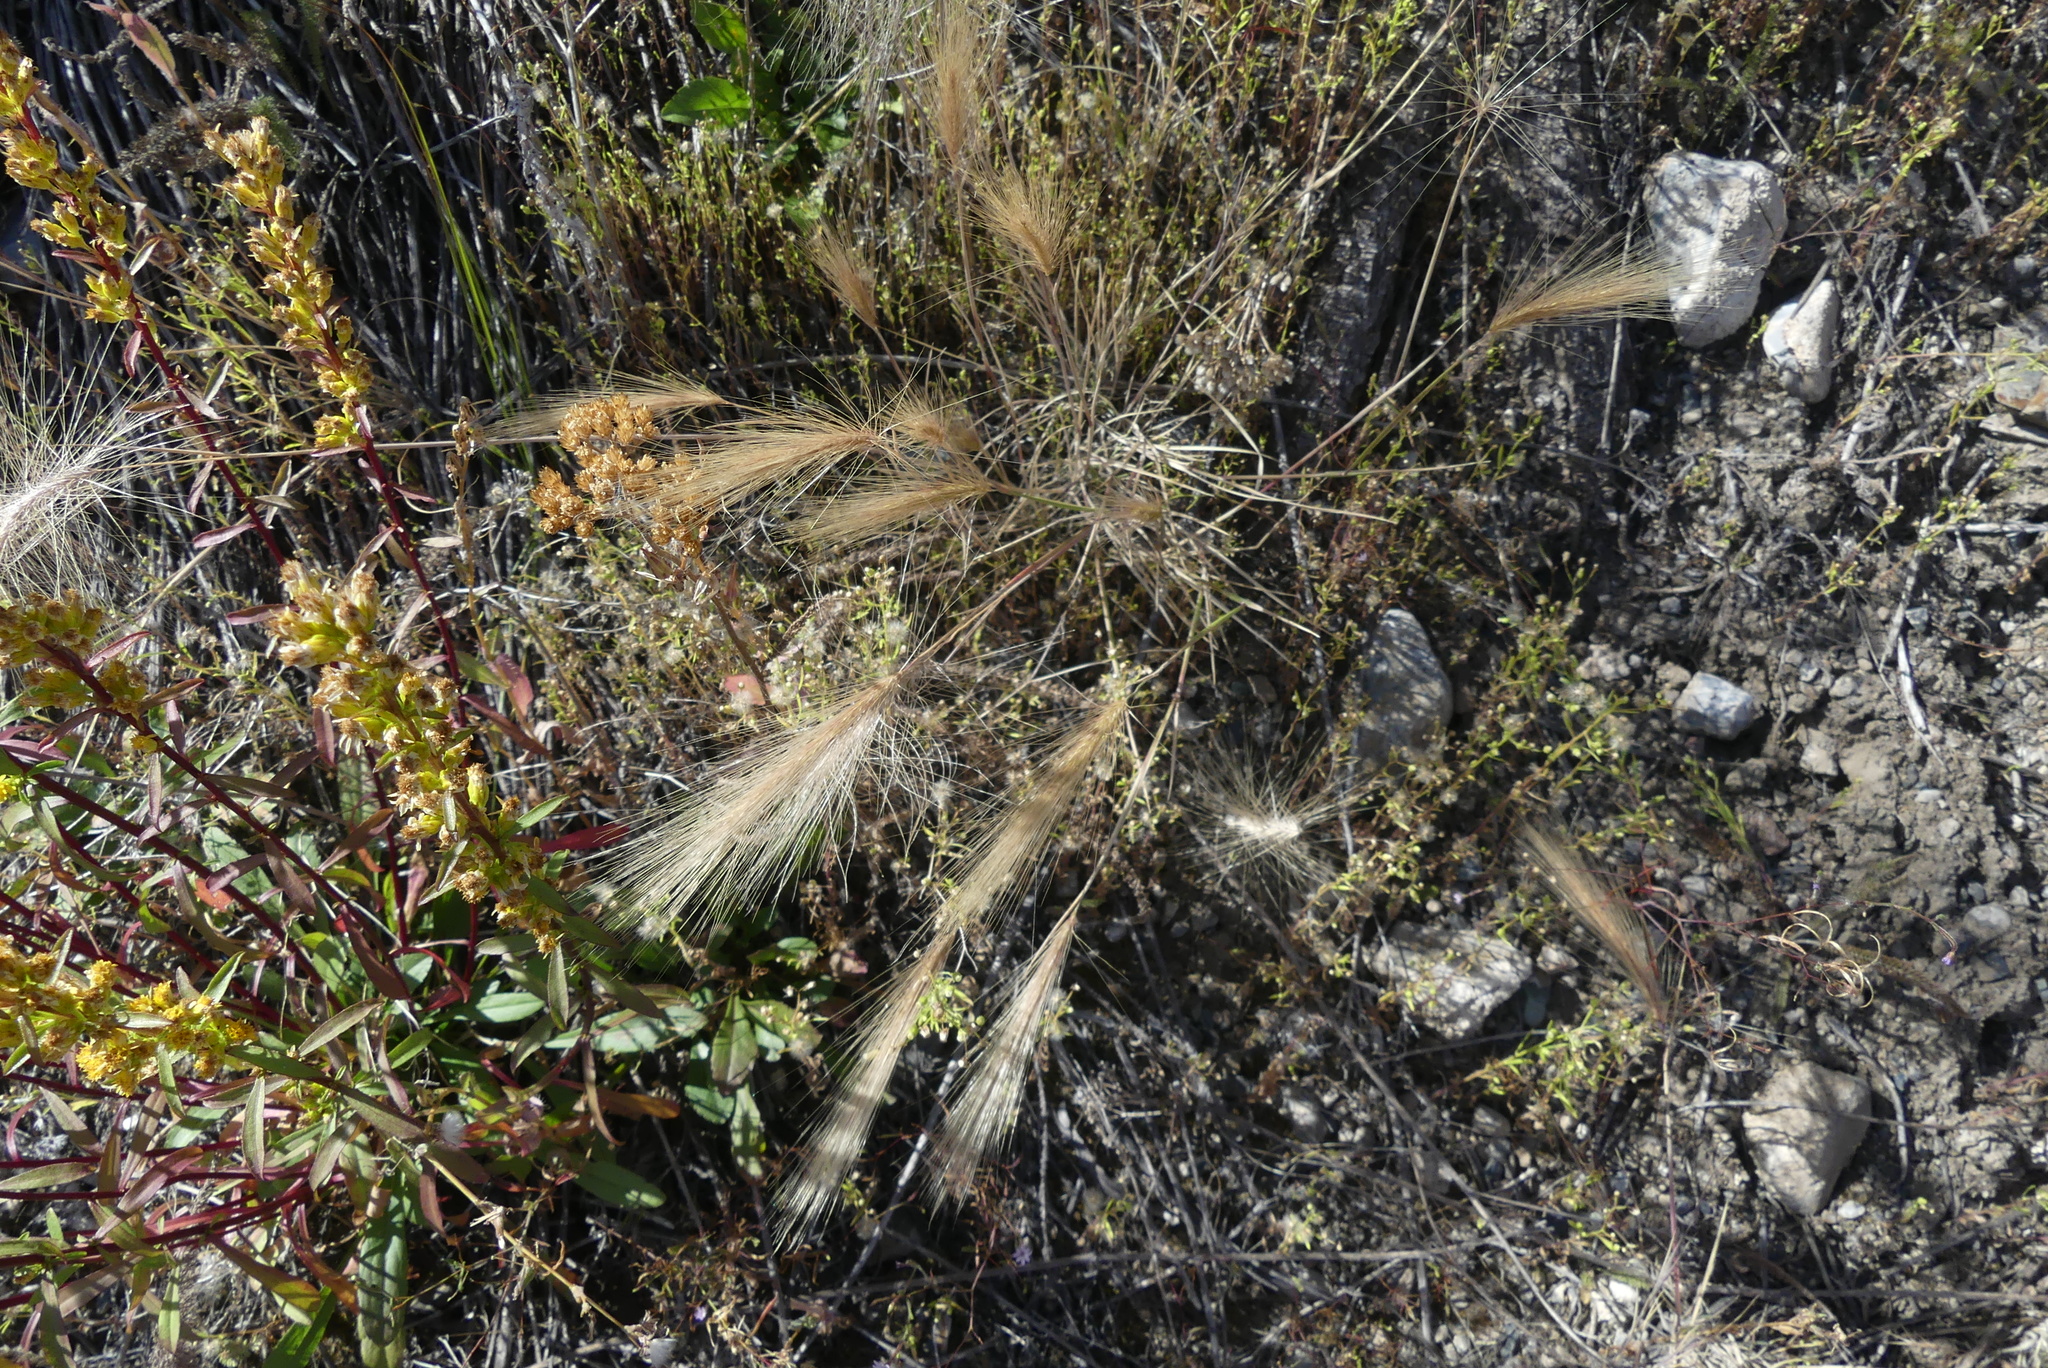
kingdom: Plantae
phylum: Tracheophyta
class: Liliopsida
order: Poales
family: Poaceae
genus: Hordeum
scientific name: Hordeum jubatum
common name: Foxtail barley
